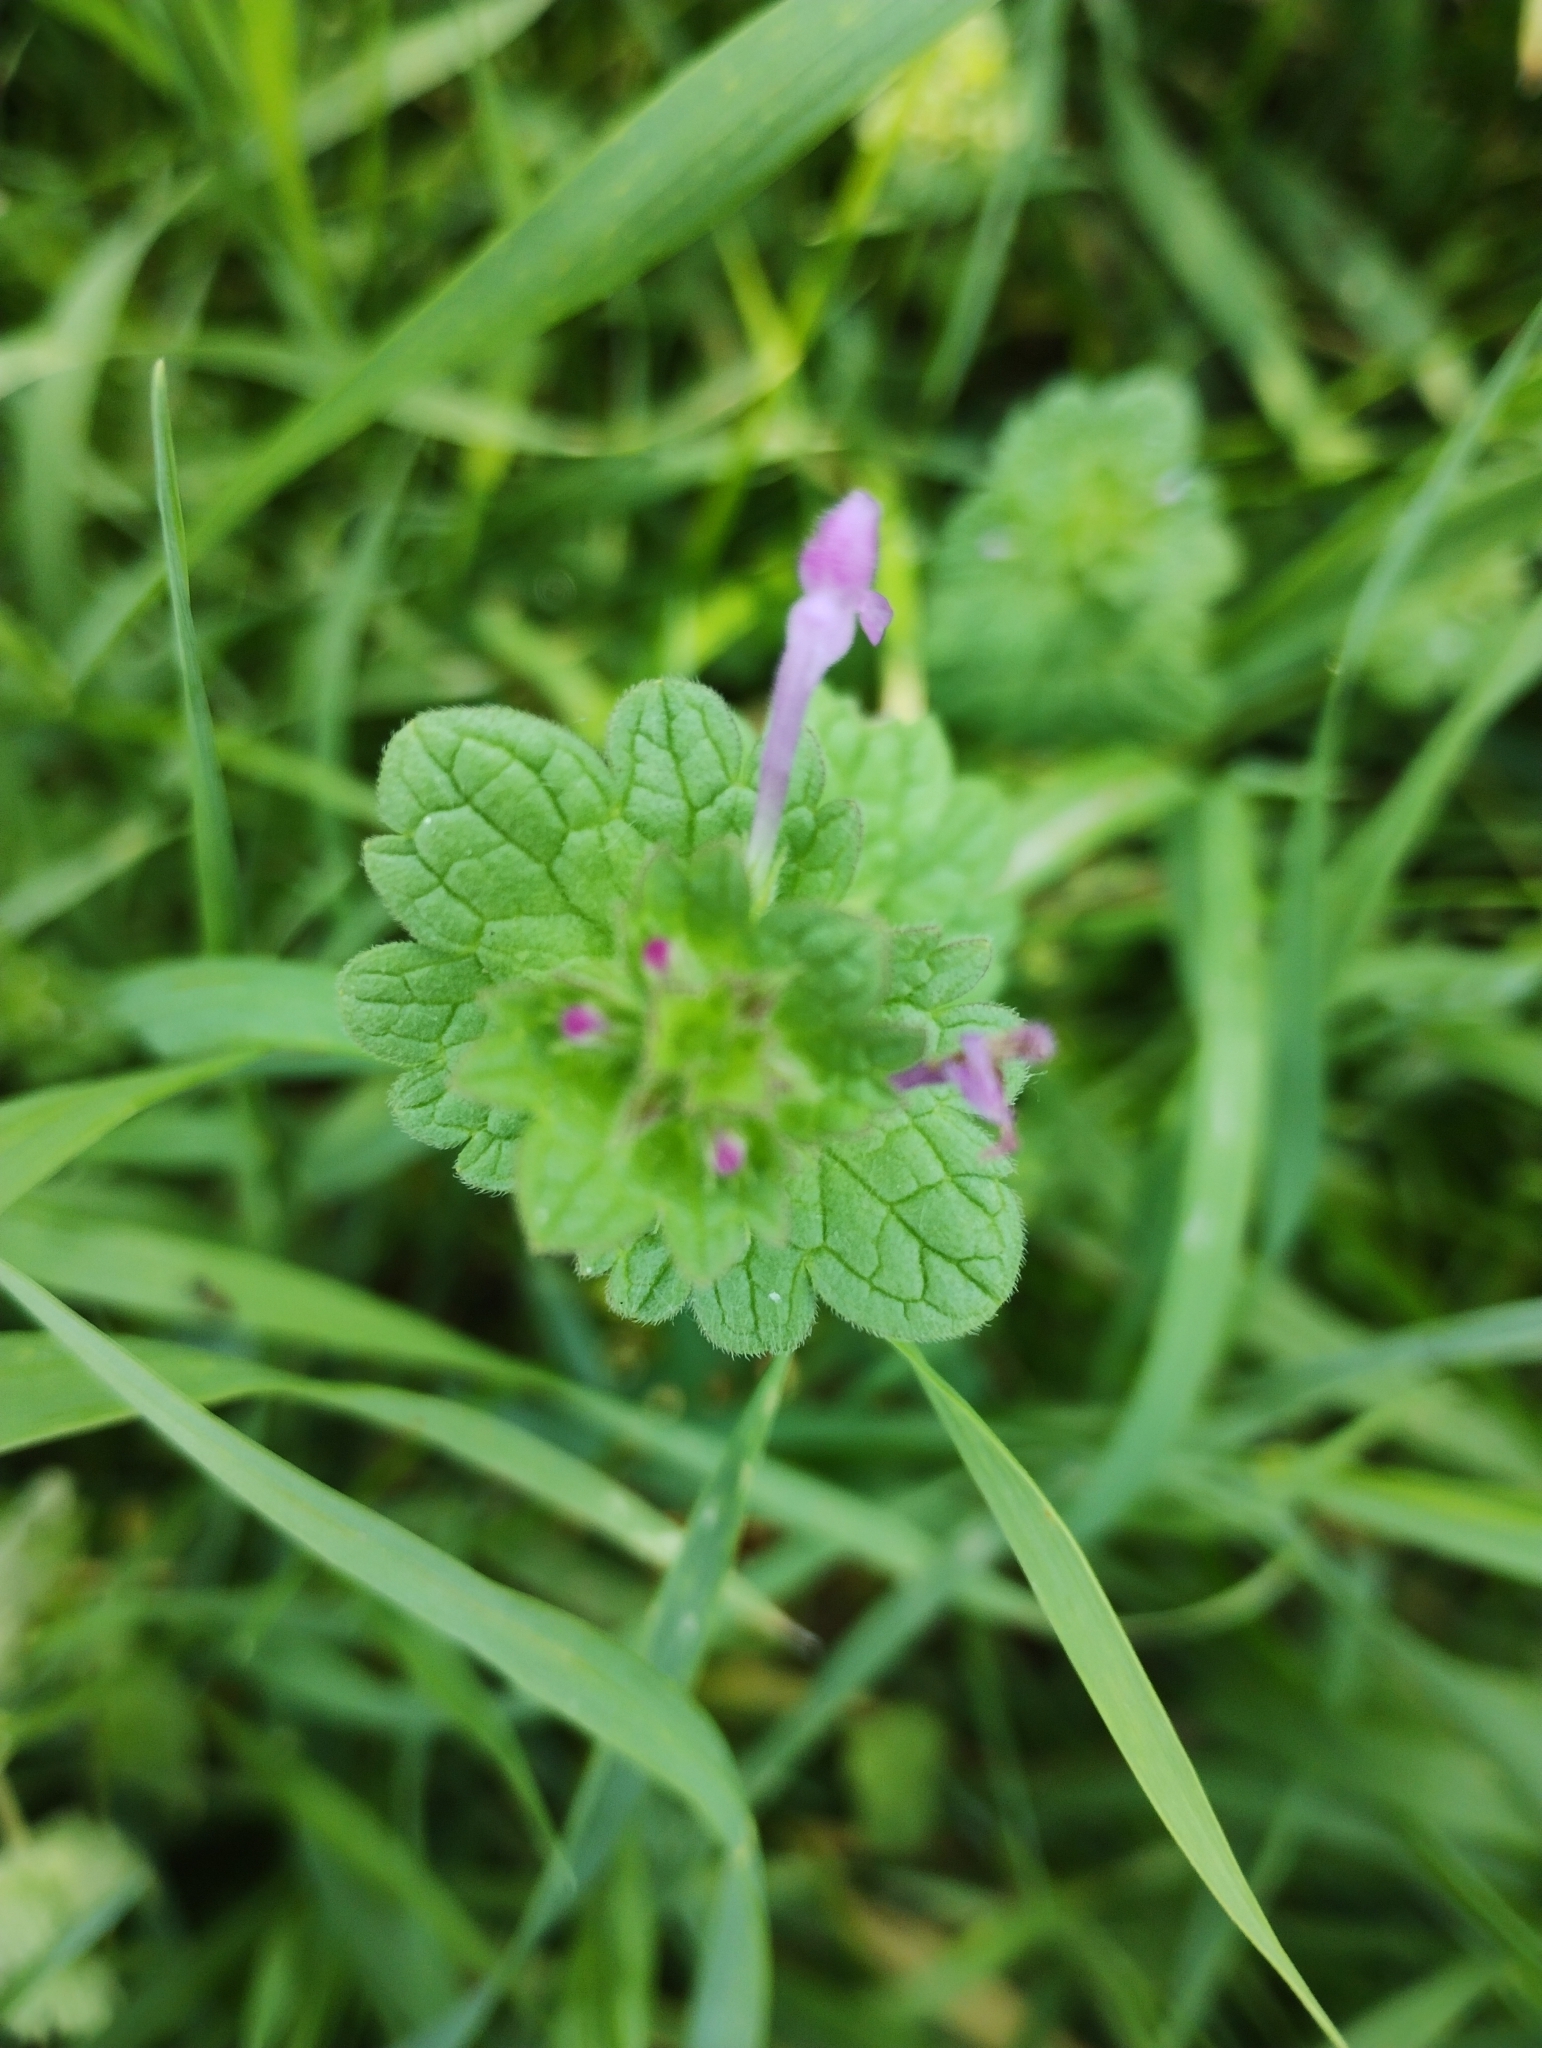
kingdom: Plantae
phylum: Tracheophyta
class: Magnoliopsida
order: Lamiales
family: Lamiaceae
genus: Lamium
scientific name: Lamium amplexicaule
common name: Henbit dead-nettle
